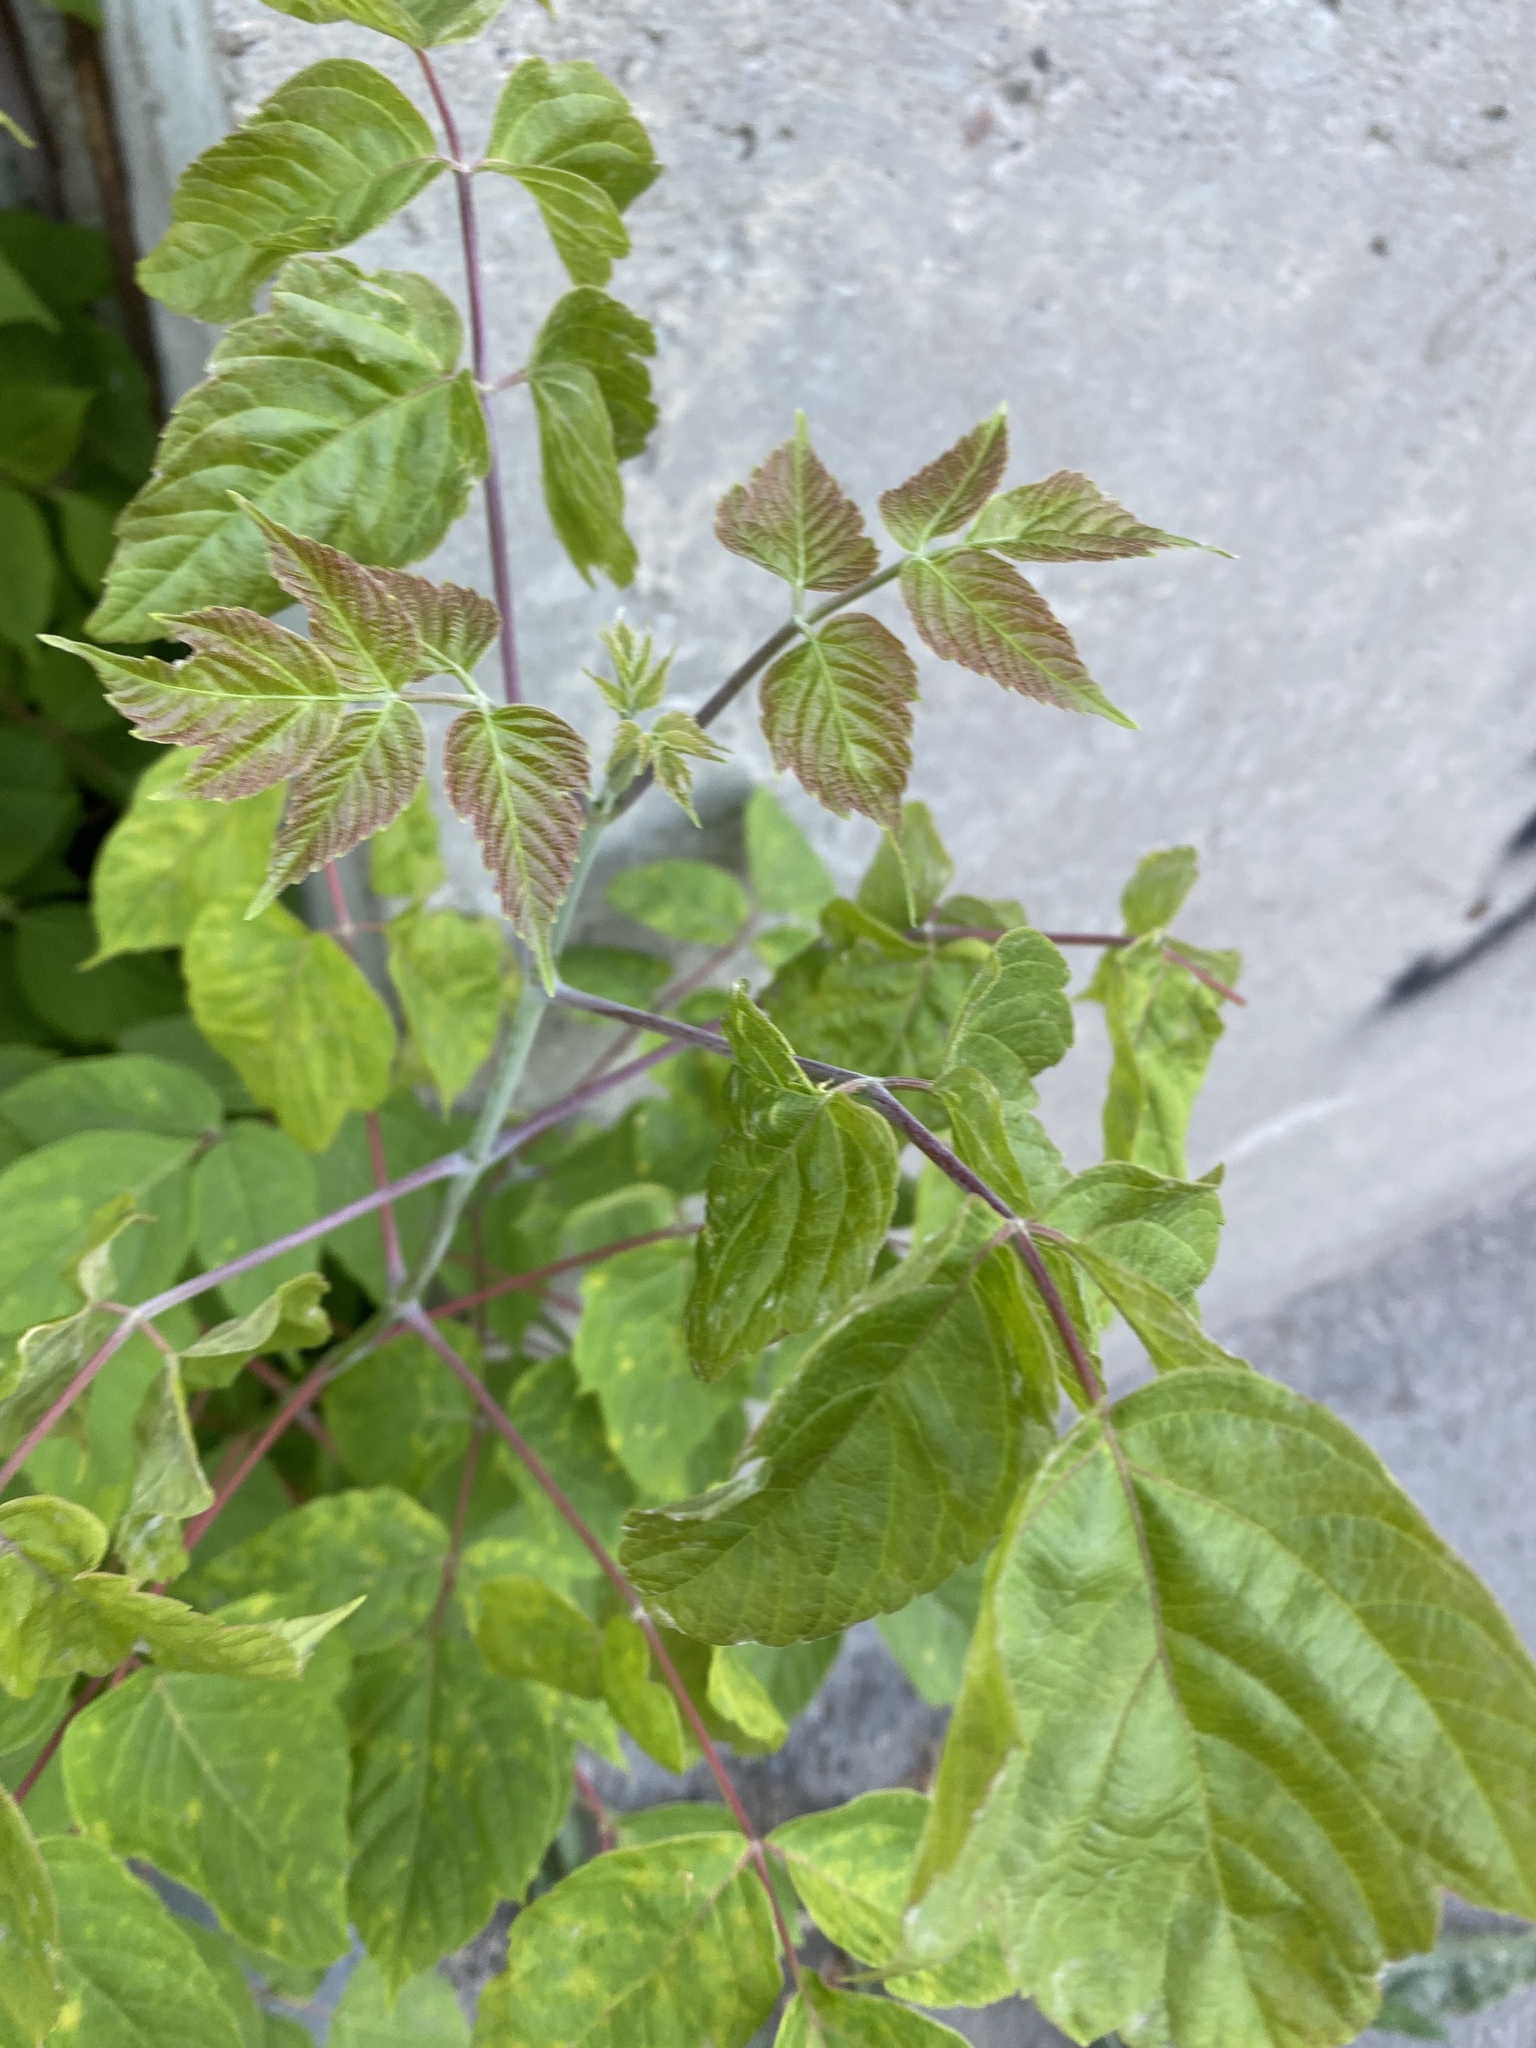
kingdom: Plantae
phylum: Tracheophyta
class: Magnoliopsida
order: Sapindales
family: Sapindaceae
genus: Acer
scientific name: Acer negundo
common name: Ashleaf maple
